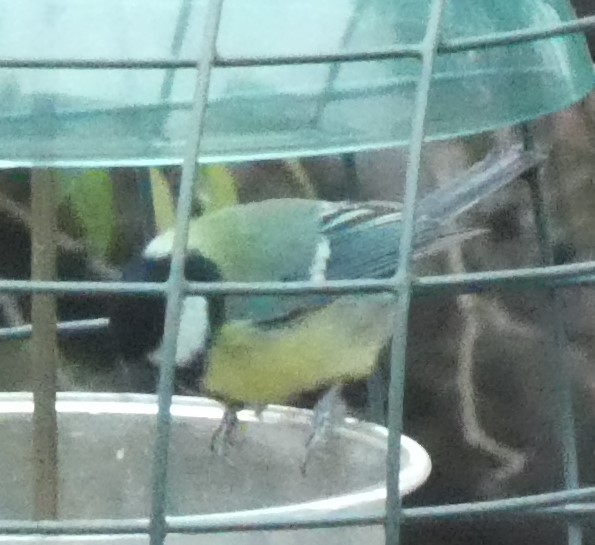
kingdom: Animalia
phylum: Chordata
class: Aves
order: Passeriformes
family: Paridae
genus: Parus
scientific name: Parus major
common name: Great tit
